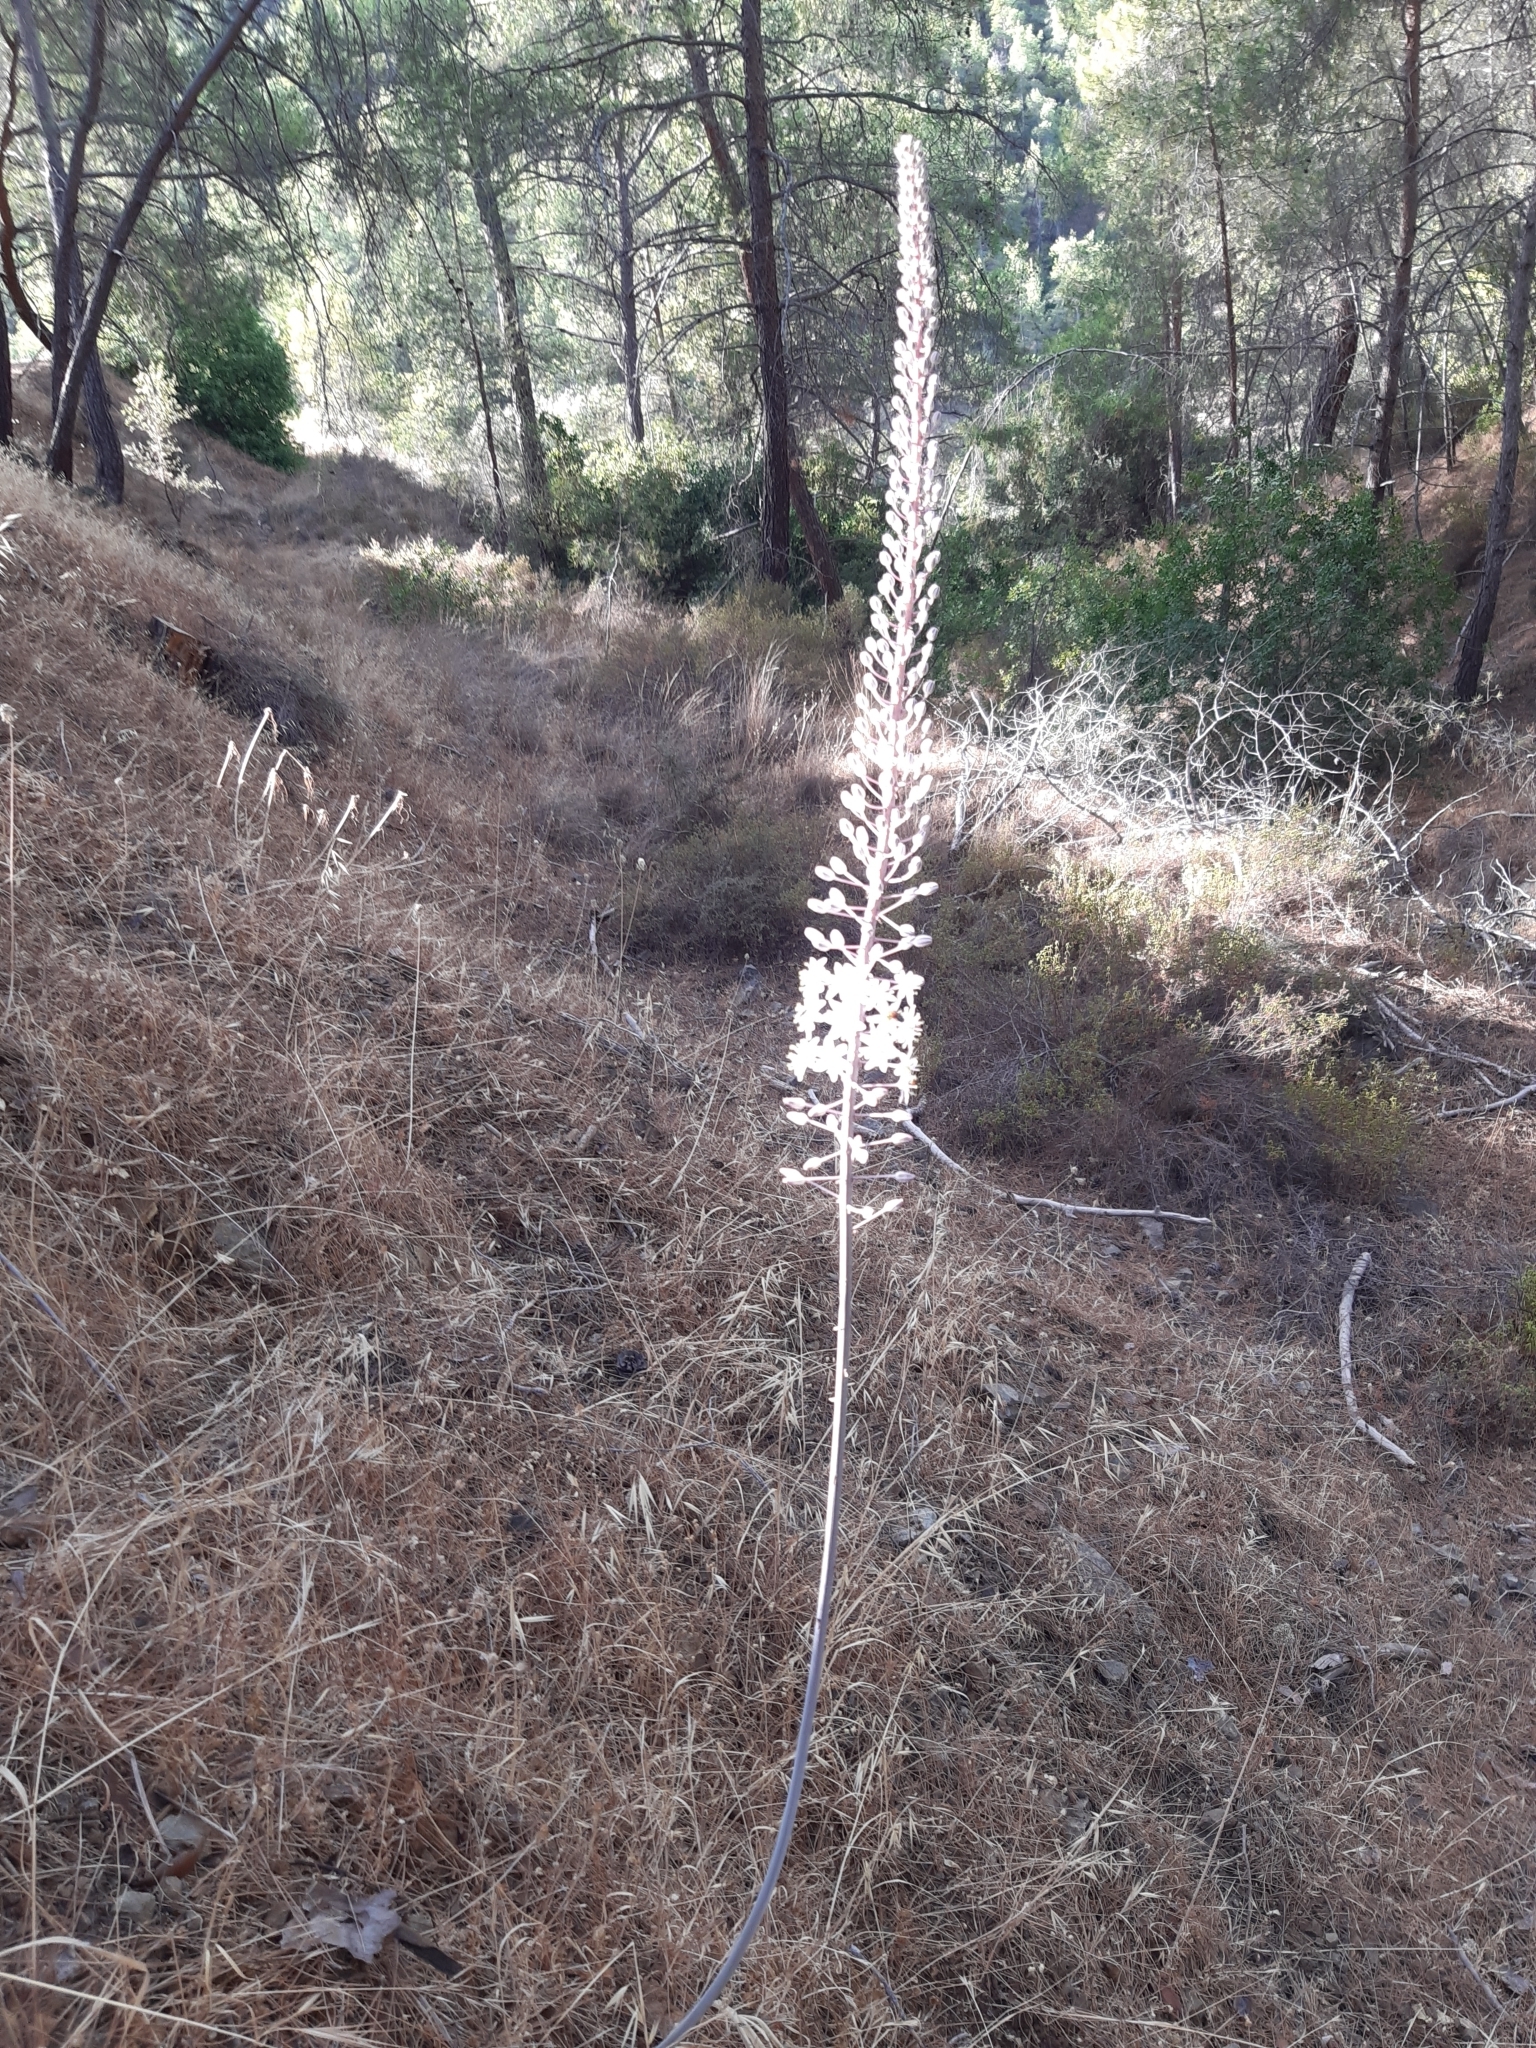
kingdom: Plantae
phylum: Tracheophyta
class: Liliopsida
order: Asparagales
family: Asparagaceae
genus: Drimia
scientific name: Drimia aphylla
